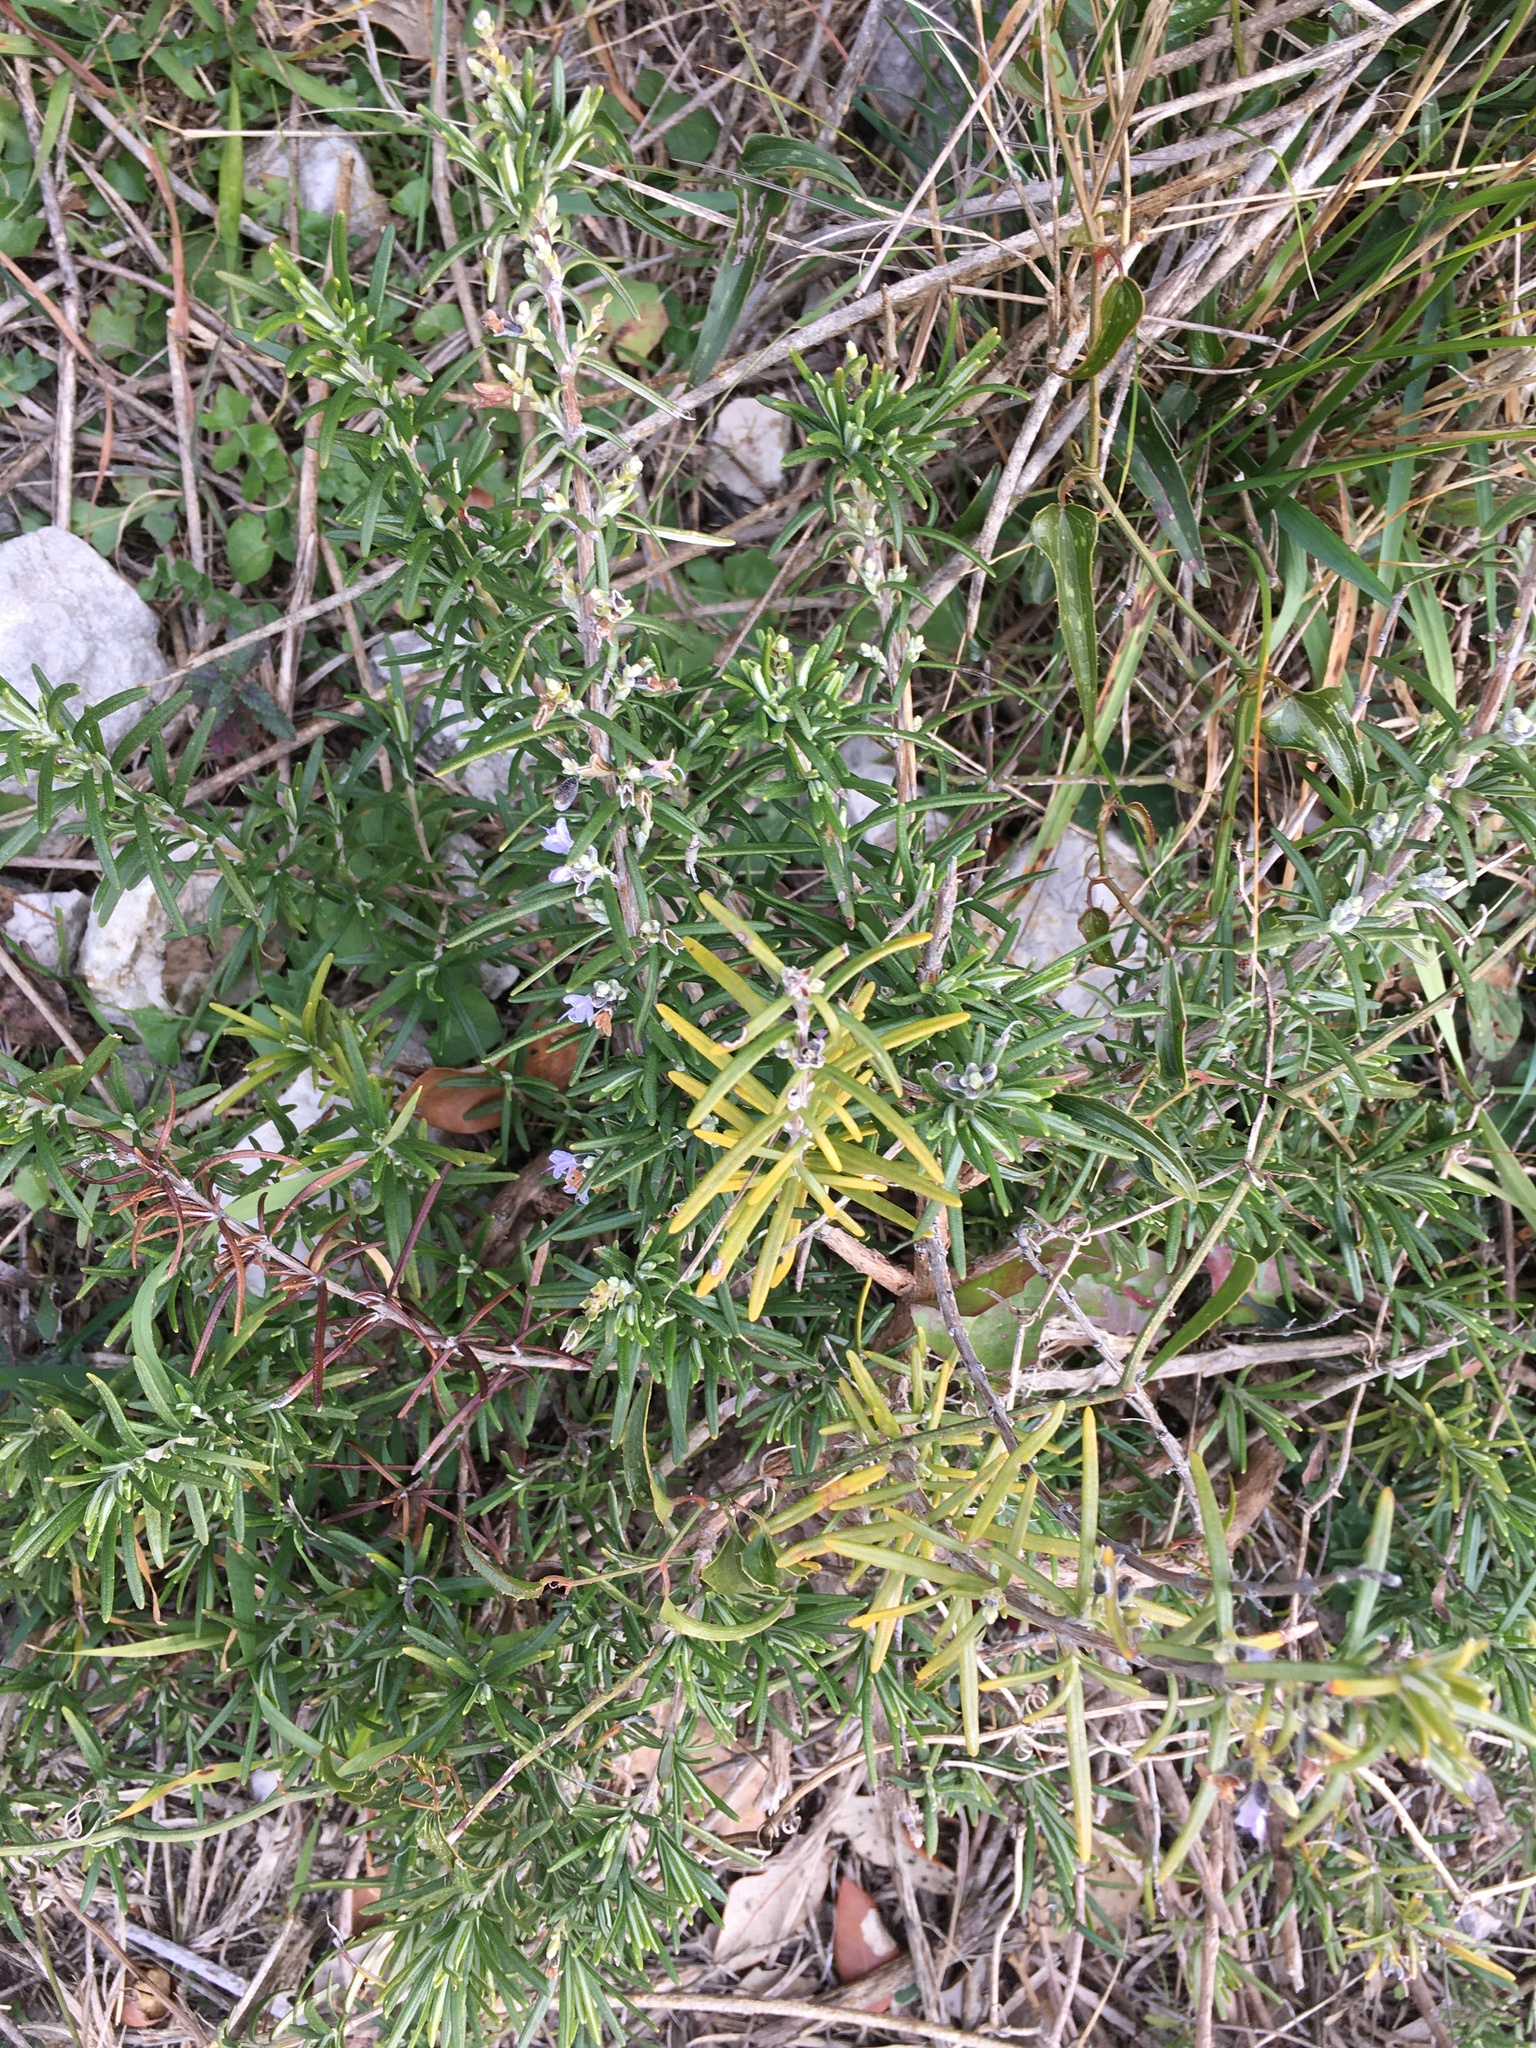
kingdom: Plantae
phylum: Tracheophyta
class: Magnoliopsida
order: Lamiales
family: Lamiaceae
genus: Salvia
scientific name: Salvia rosmarinus
